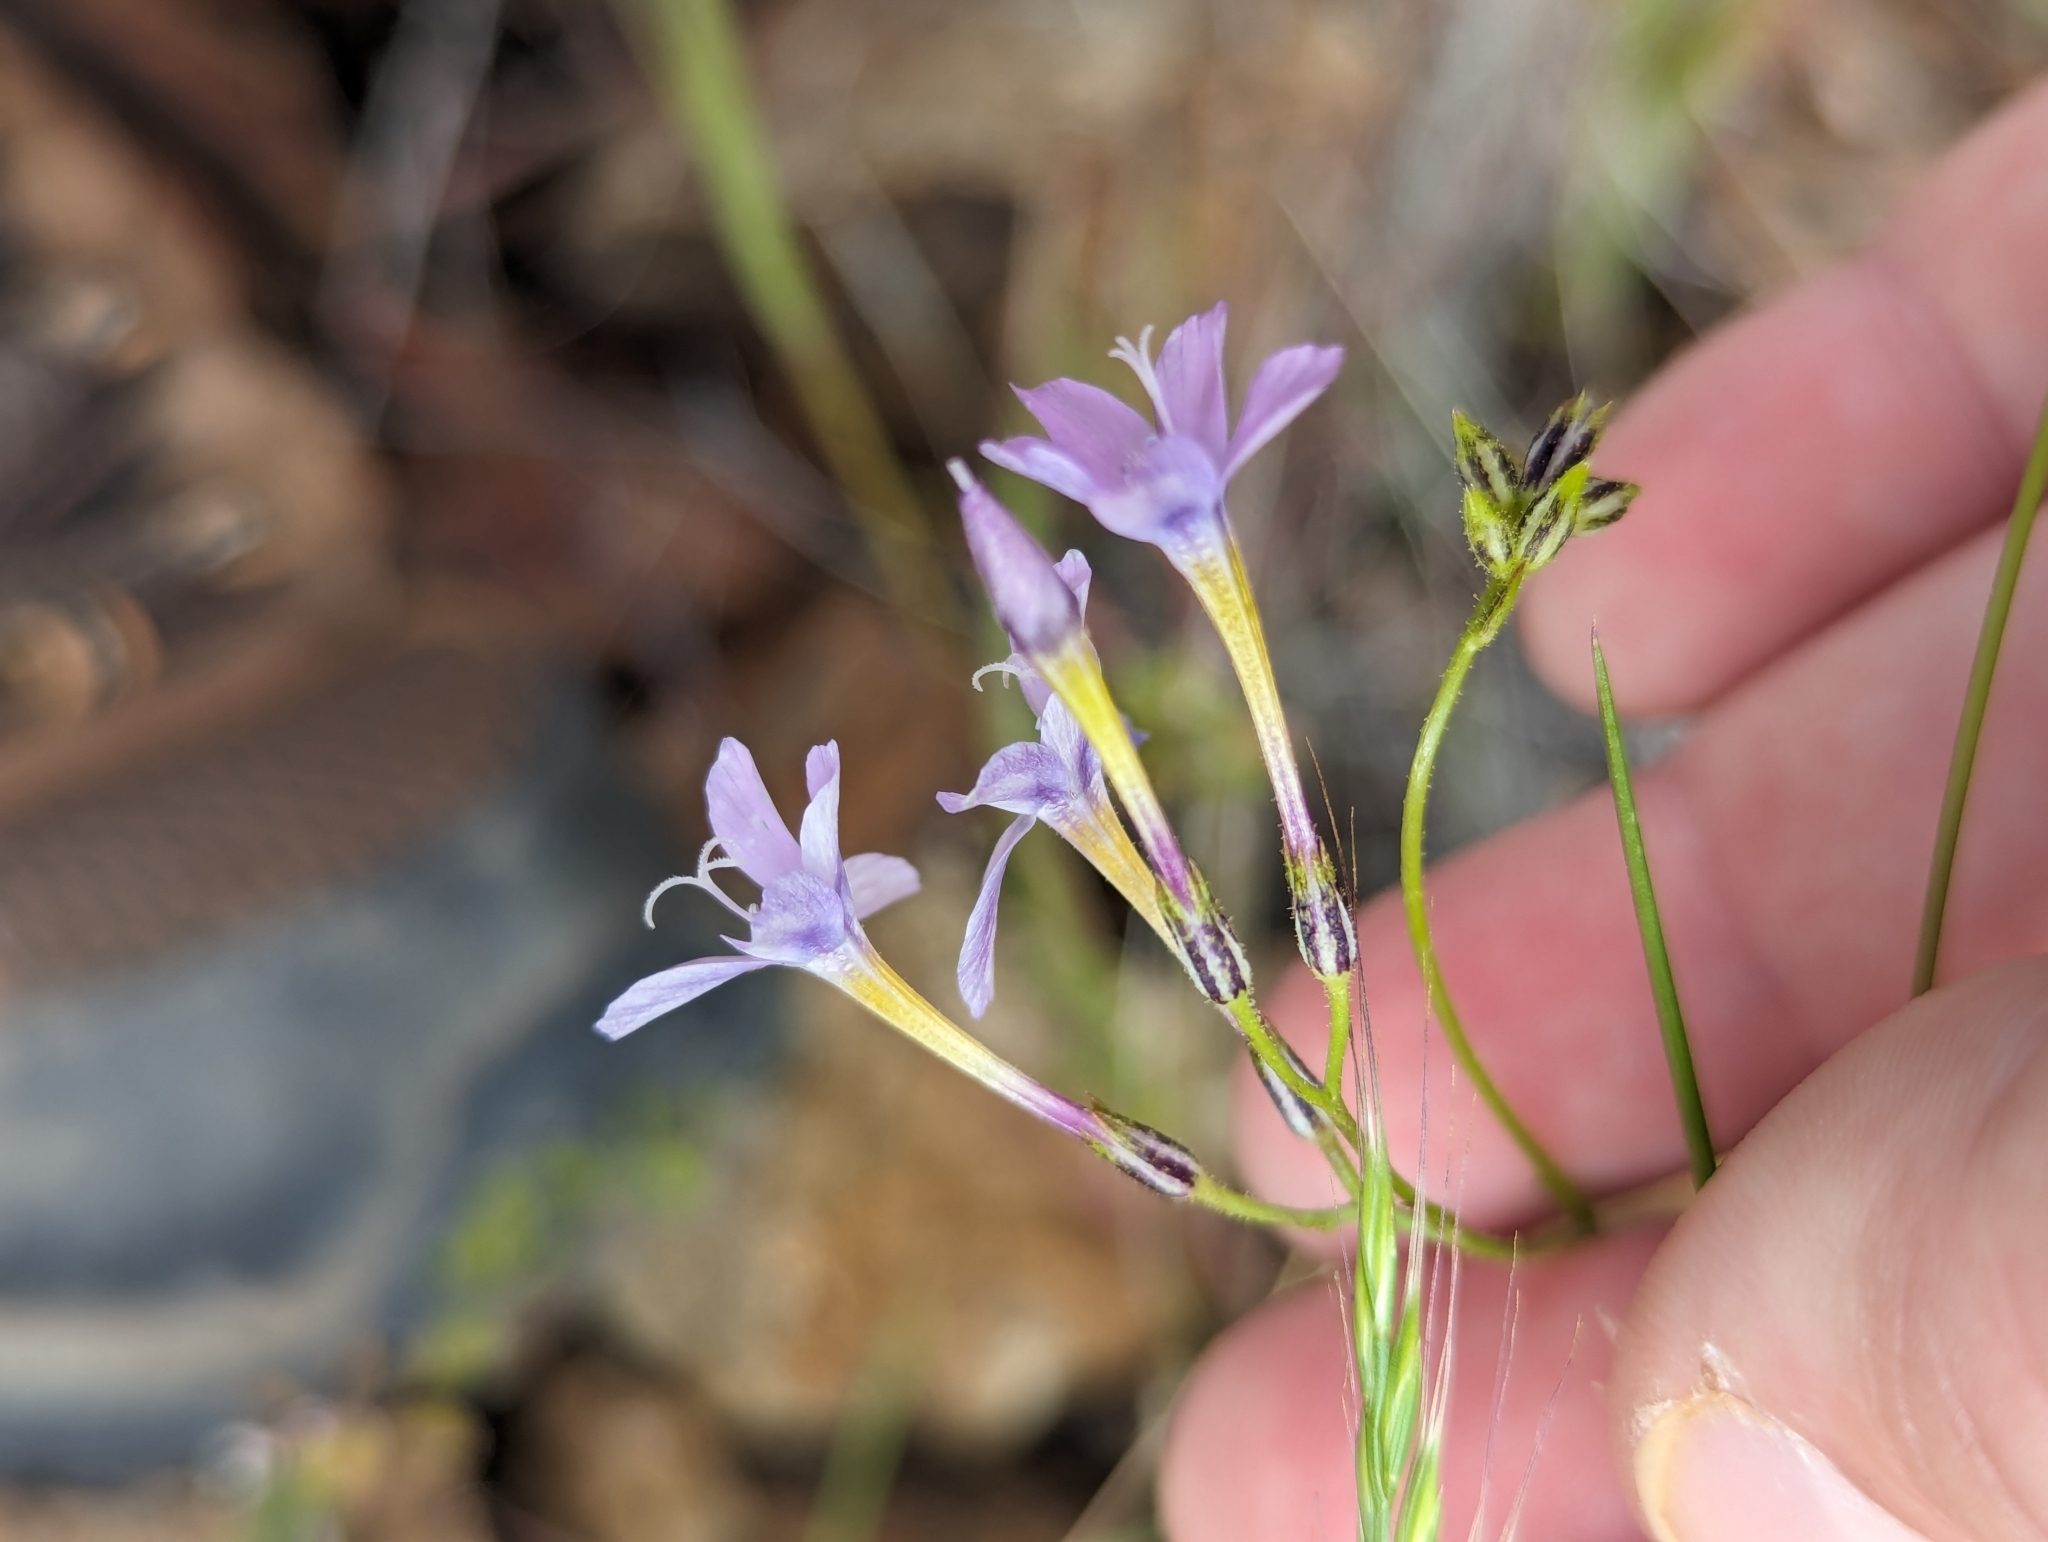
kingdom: Plantae
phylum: Tracheophyta
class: Magnoliopsida
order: Ericales
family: Polemoniaceae
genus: Gilia
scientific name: Gilia flavocincta
